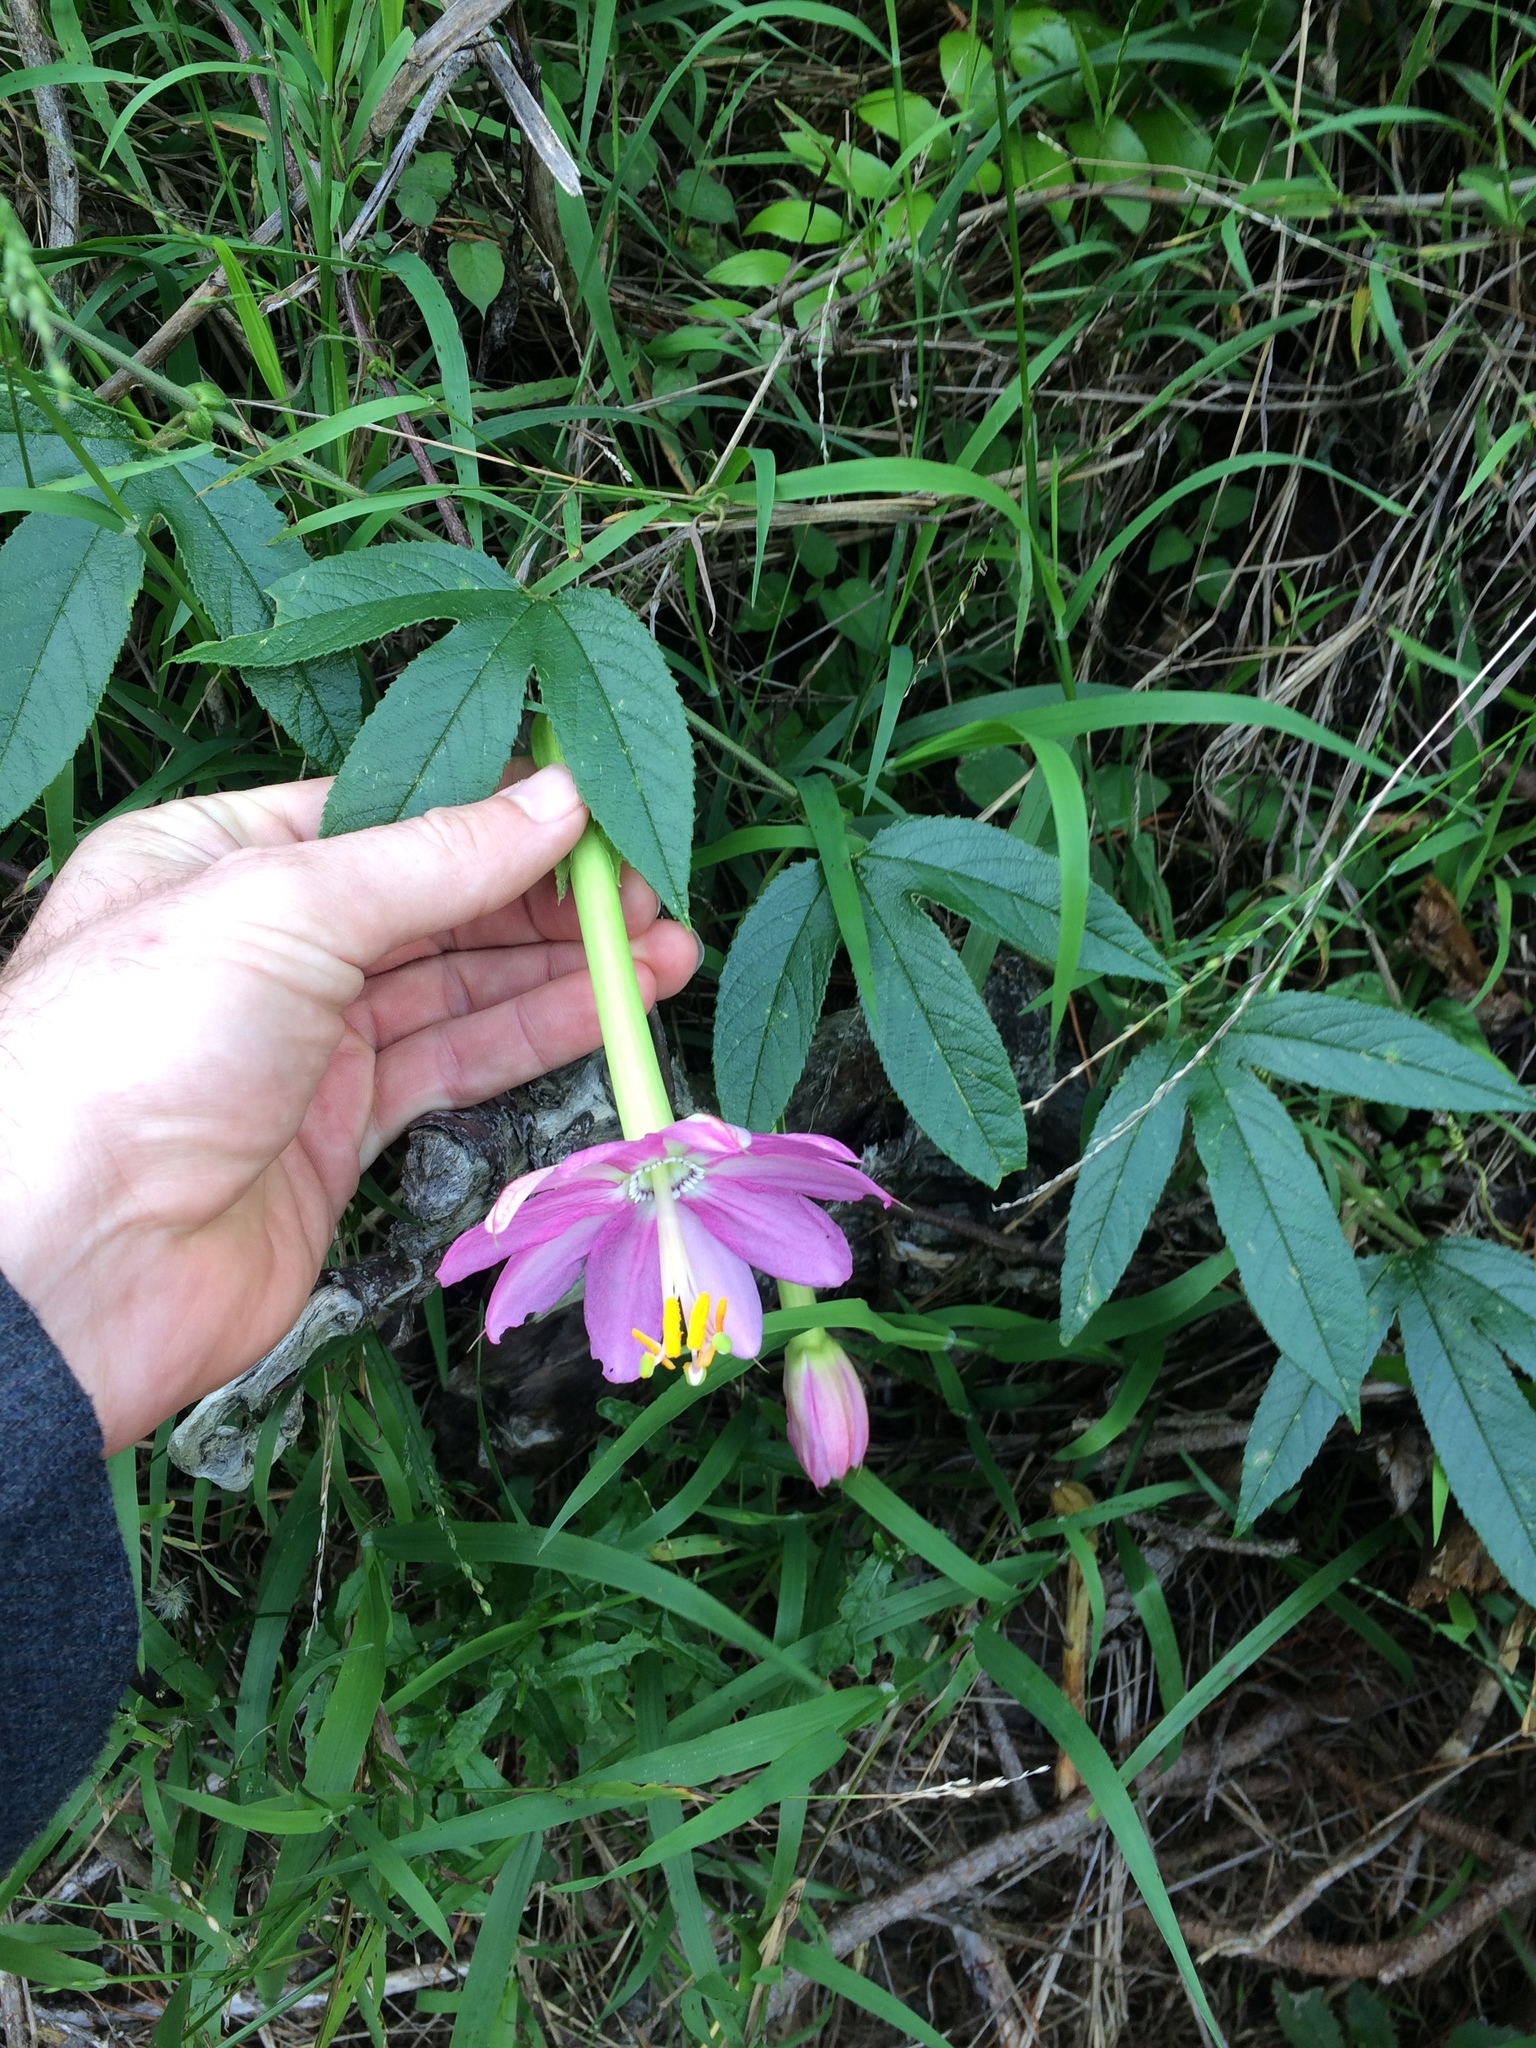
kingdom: Plantae
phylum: Tracheophyta
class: Magnoliopsida
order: Malpighiales
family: Passifloraceae
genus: Passiflora
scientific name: Passiflora tripartita
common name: Banana poka
